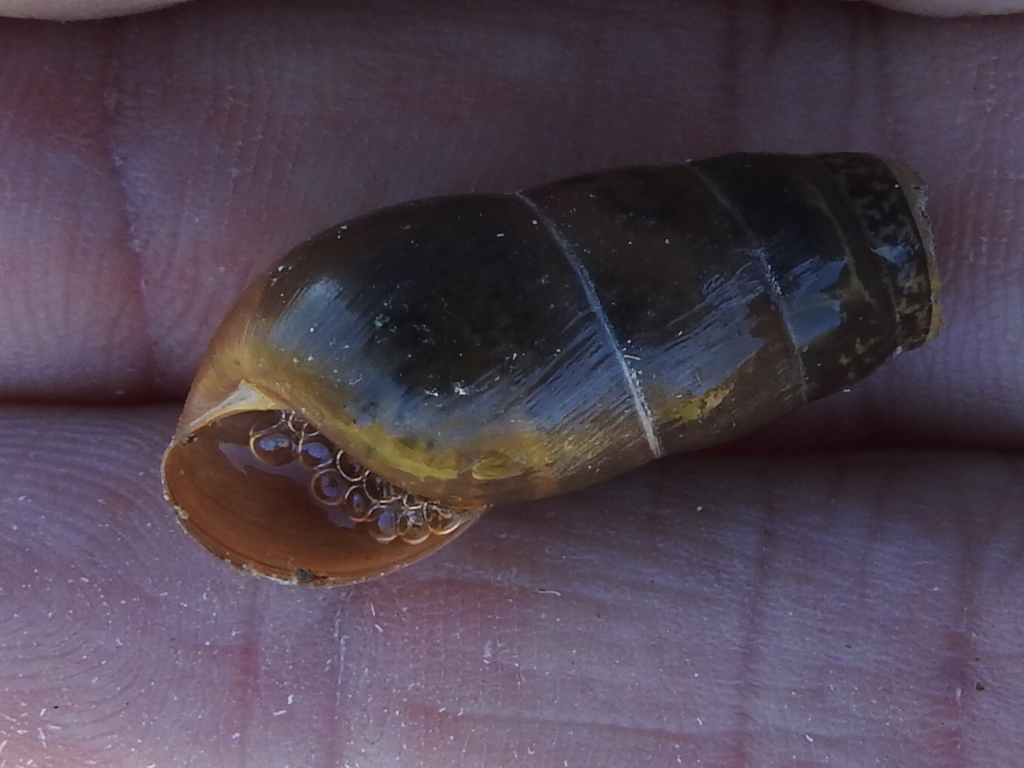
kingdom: Animalia
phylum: Mollusca
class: Gastropoda
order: Stylommatophora
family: Achatinidae
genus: Rumina
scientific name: Rumina decollata
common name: Decollate snail
